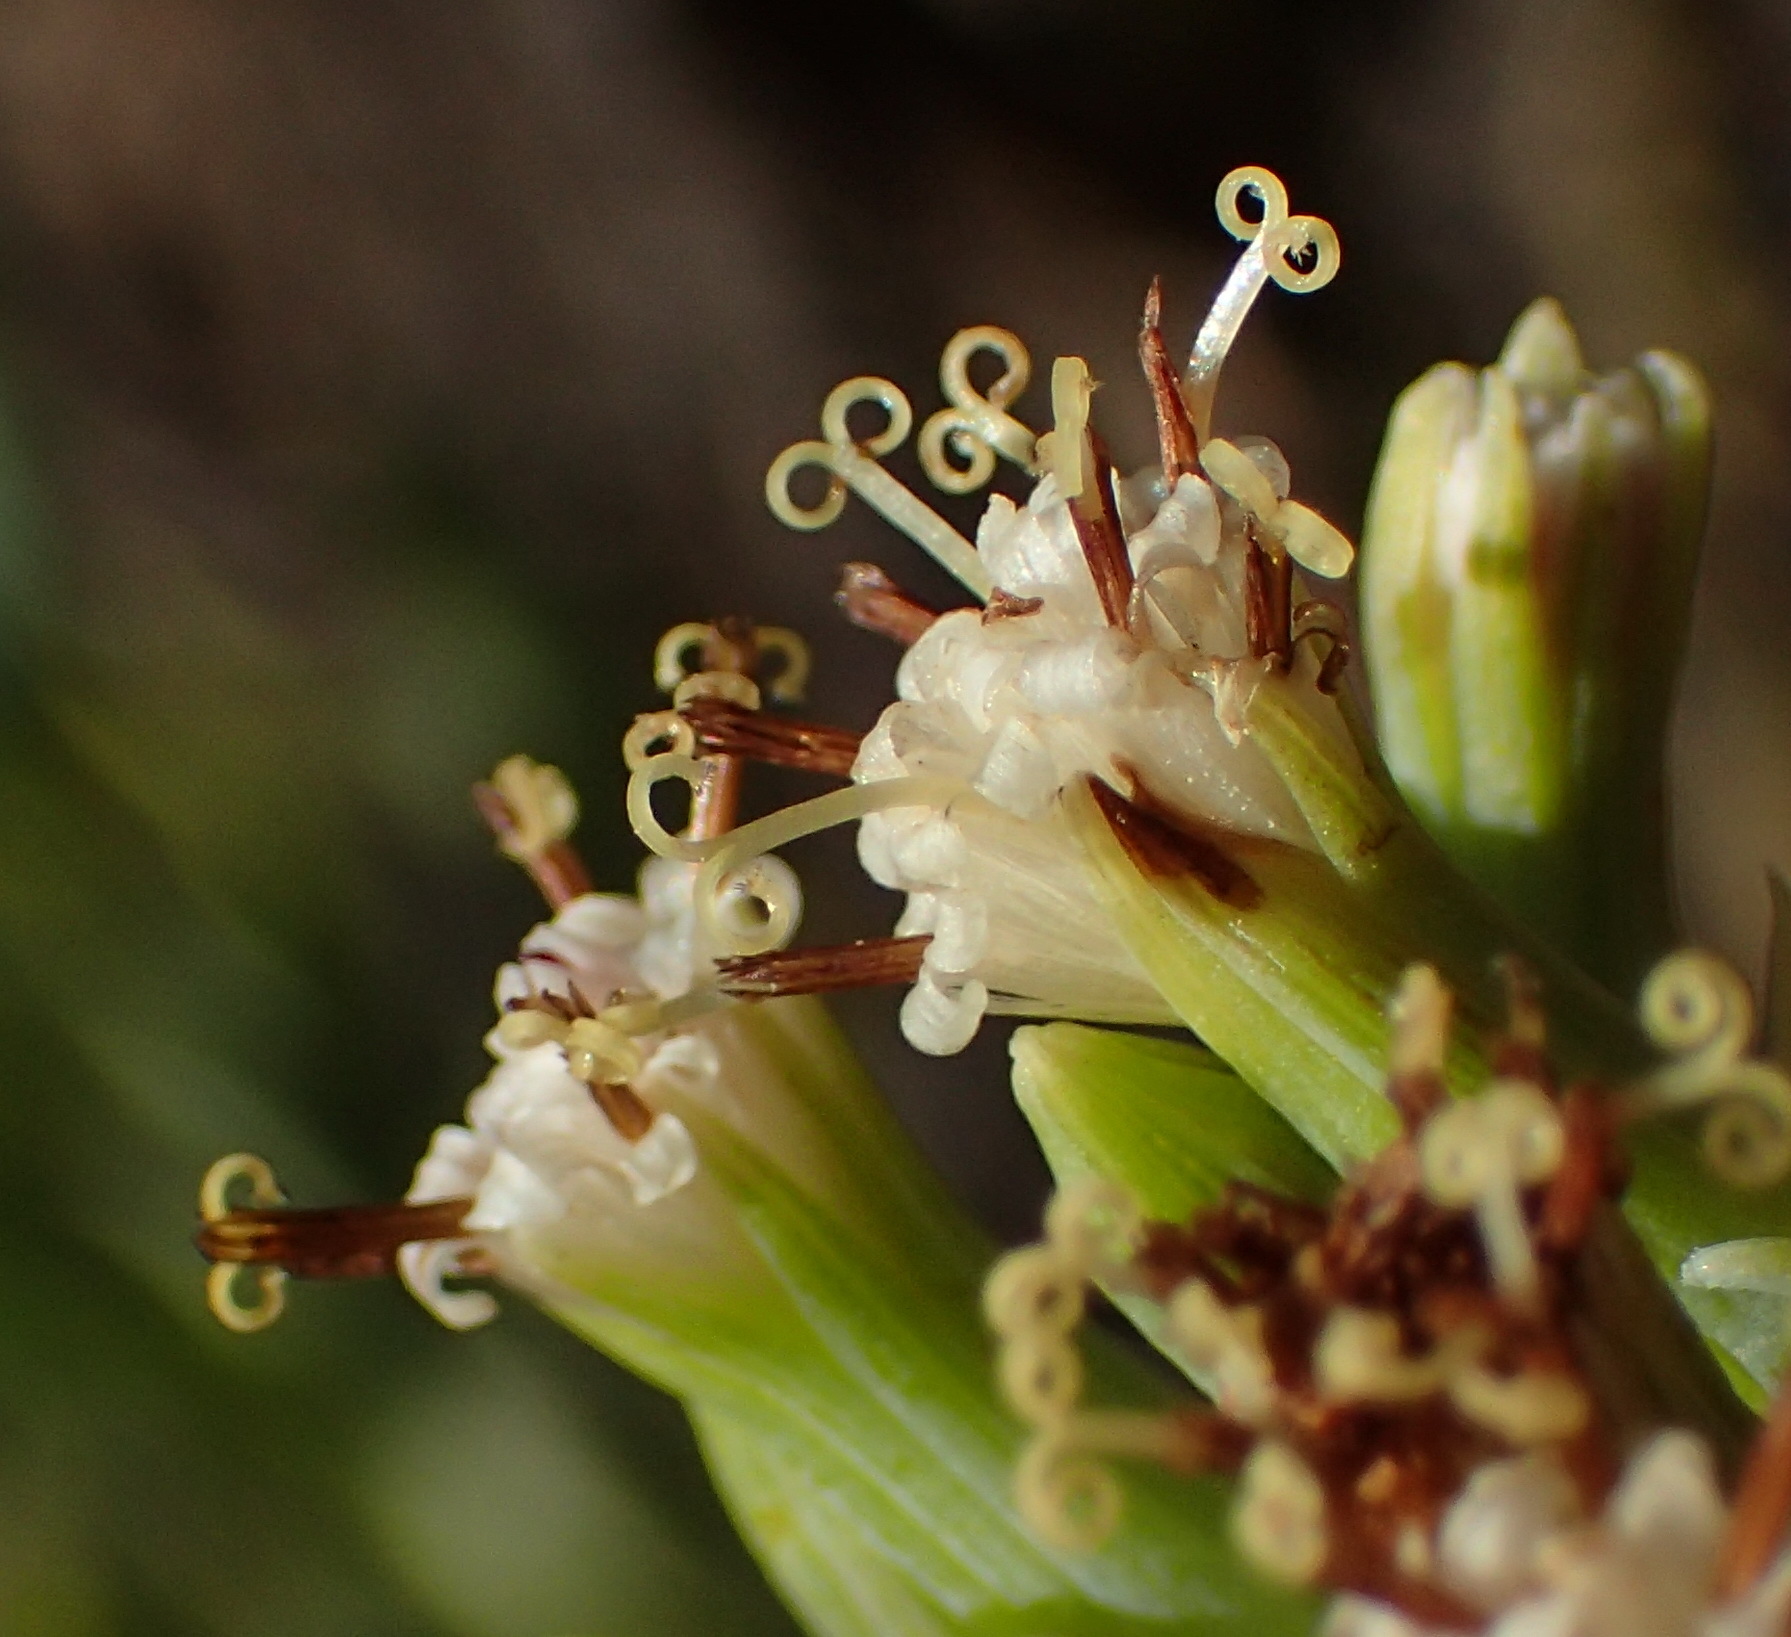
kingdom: Plantae
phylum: Tracheophyta
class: Magnoliopsida
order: Asterales
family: Asteraceae
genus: Curio
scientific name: Curio ficoides
